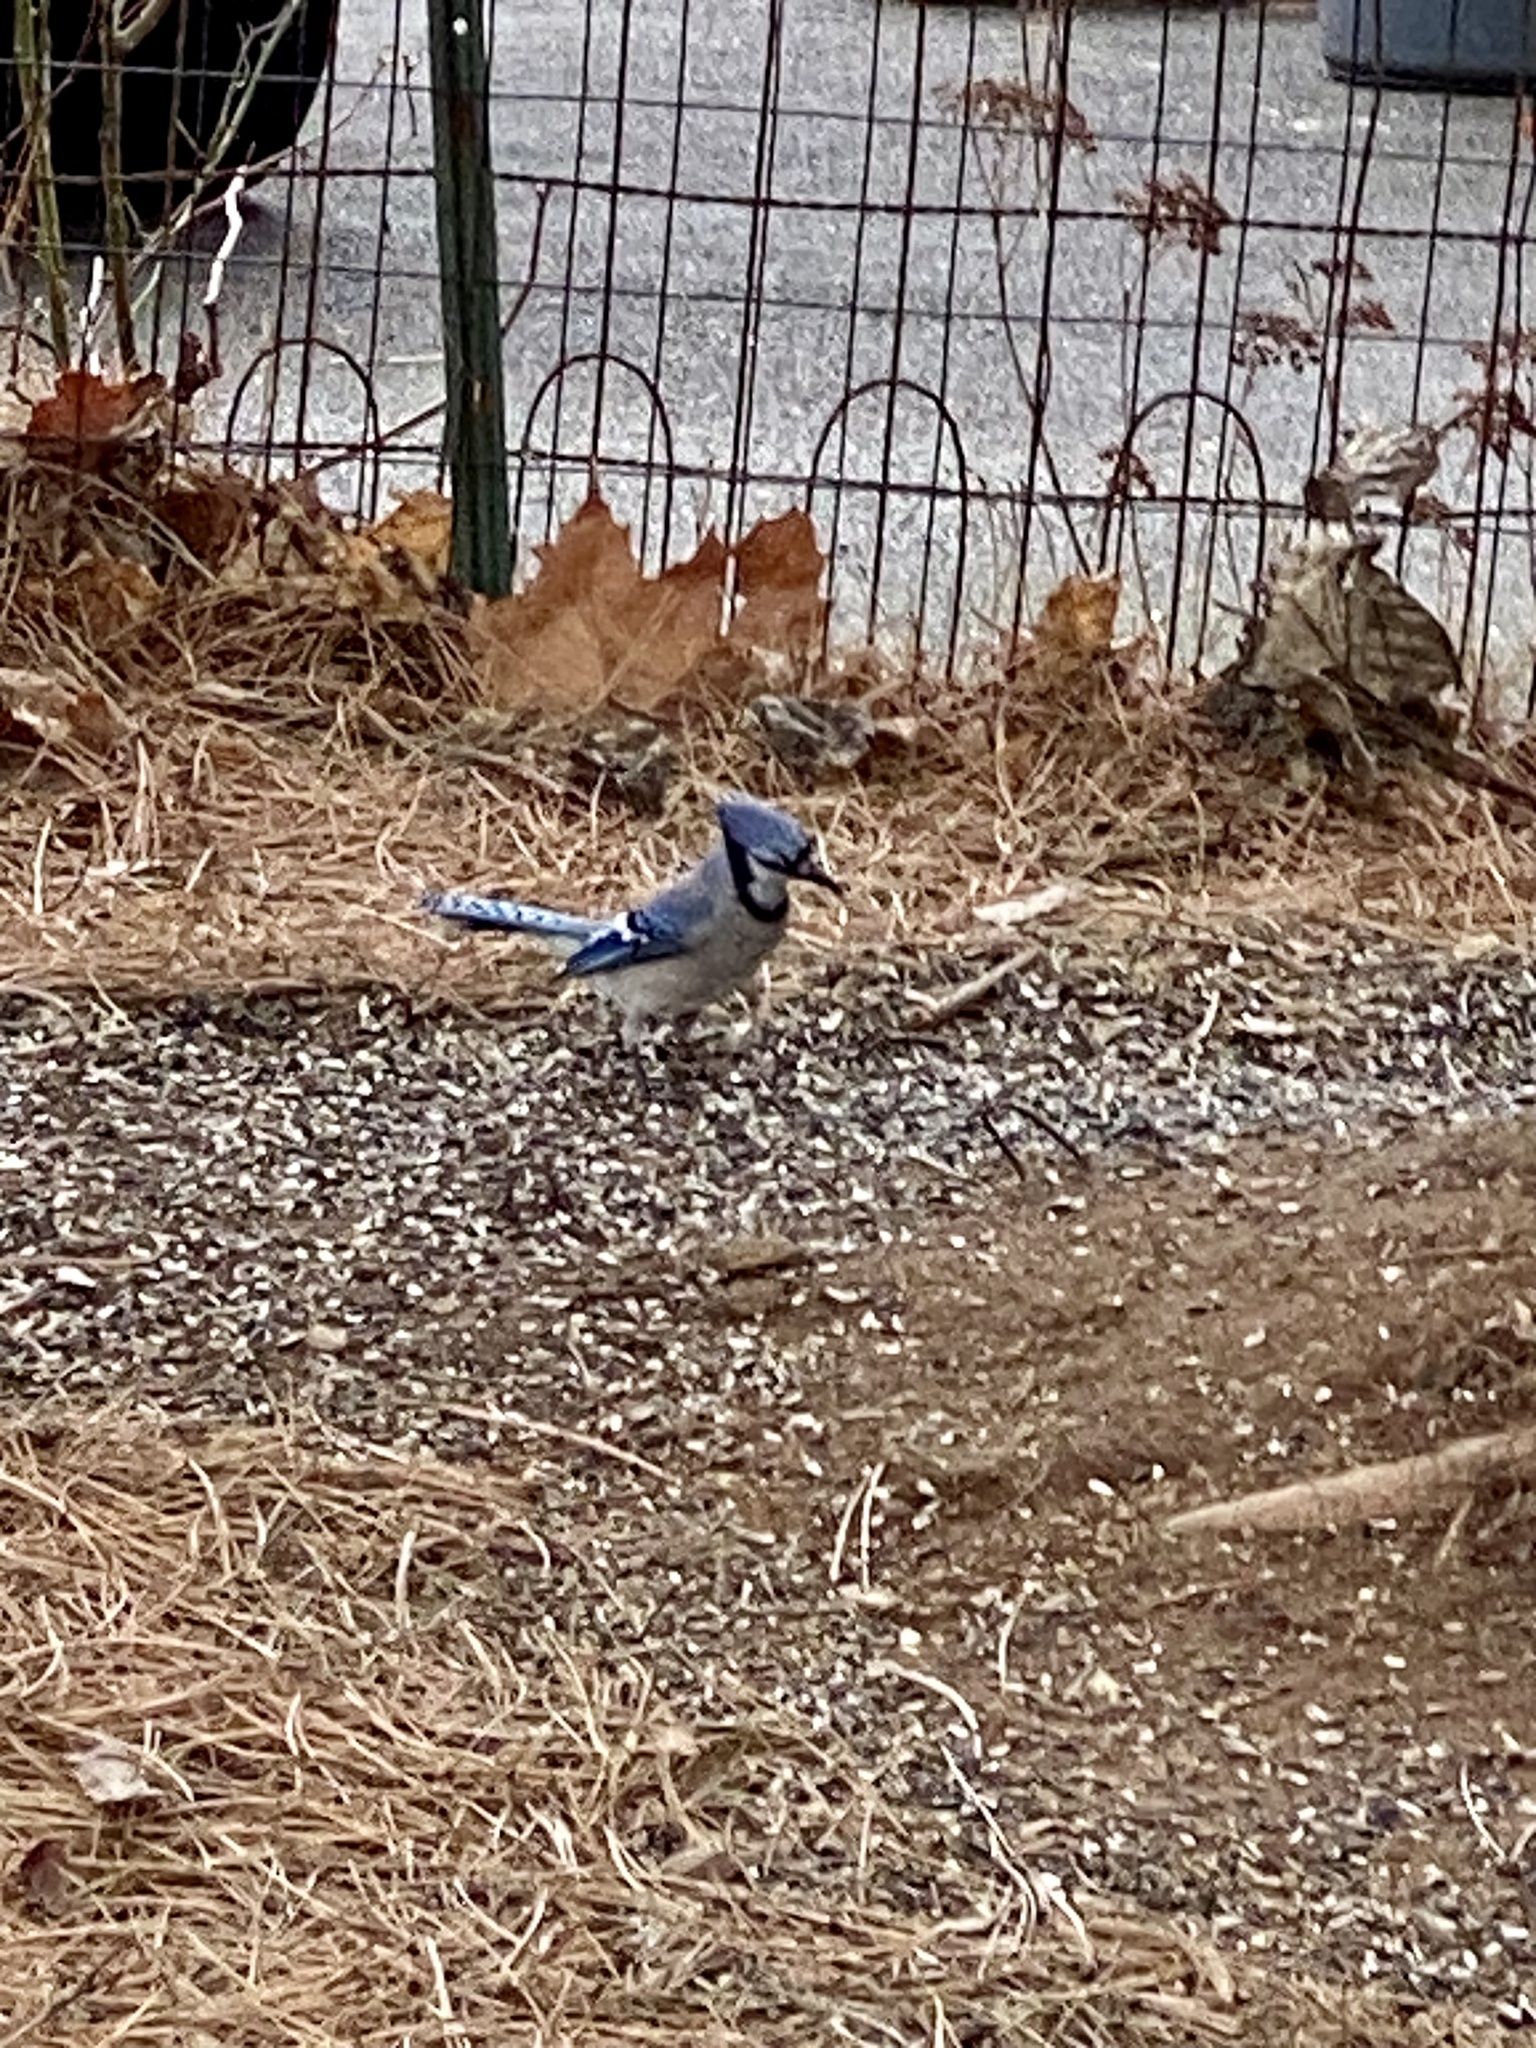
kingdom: Animalia
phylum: Chordata
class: Aves
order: Passeriformes
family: Corvidae
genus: Cyanocitta
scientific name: Cyanocitta cristata
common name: Blue jay
